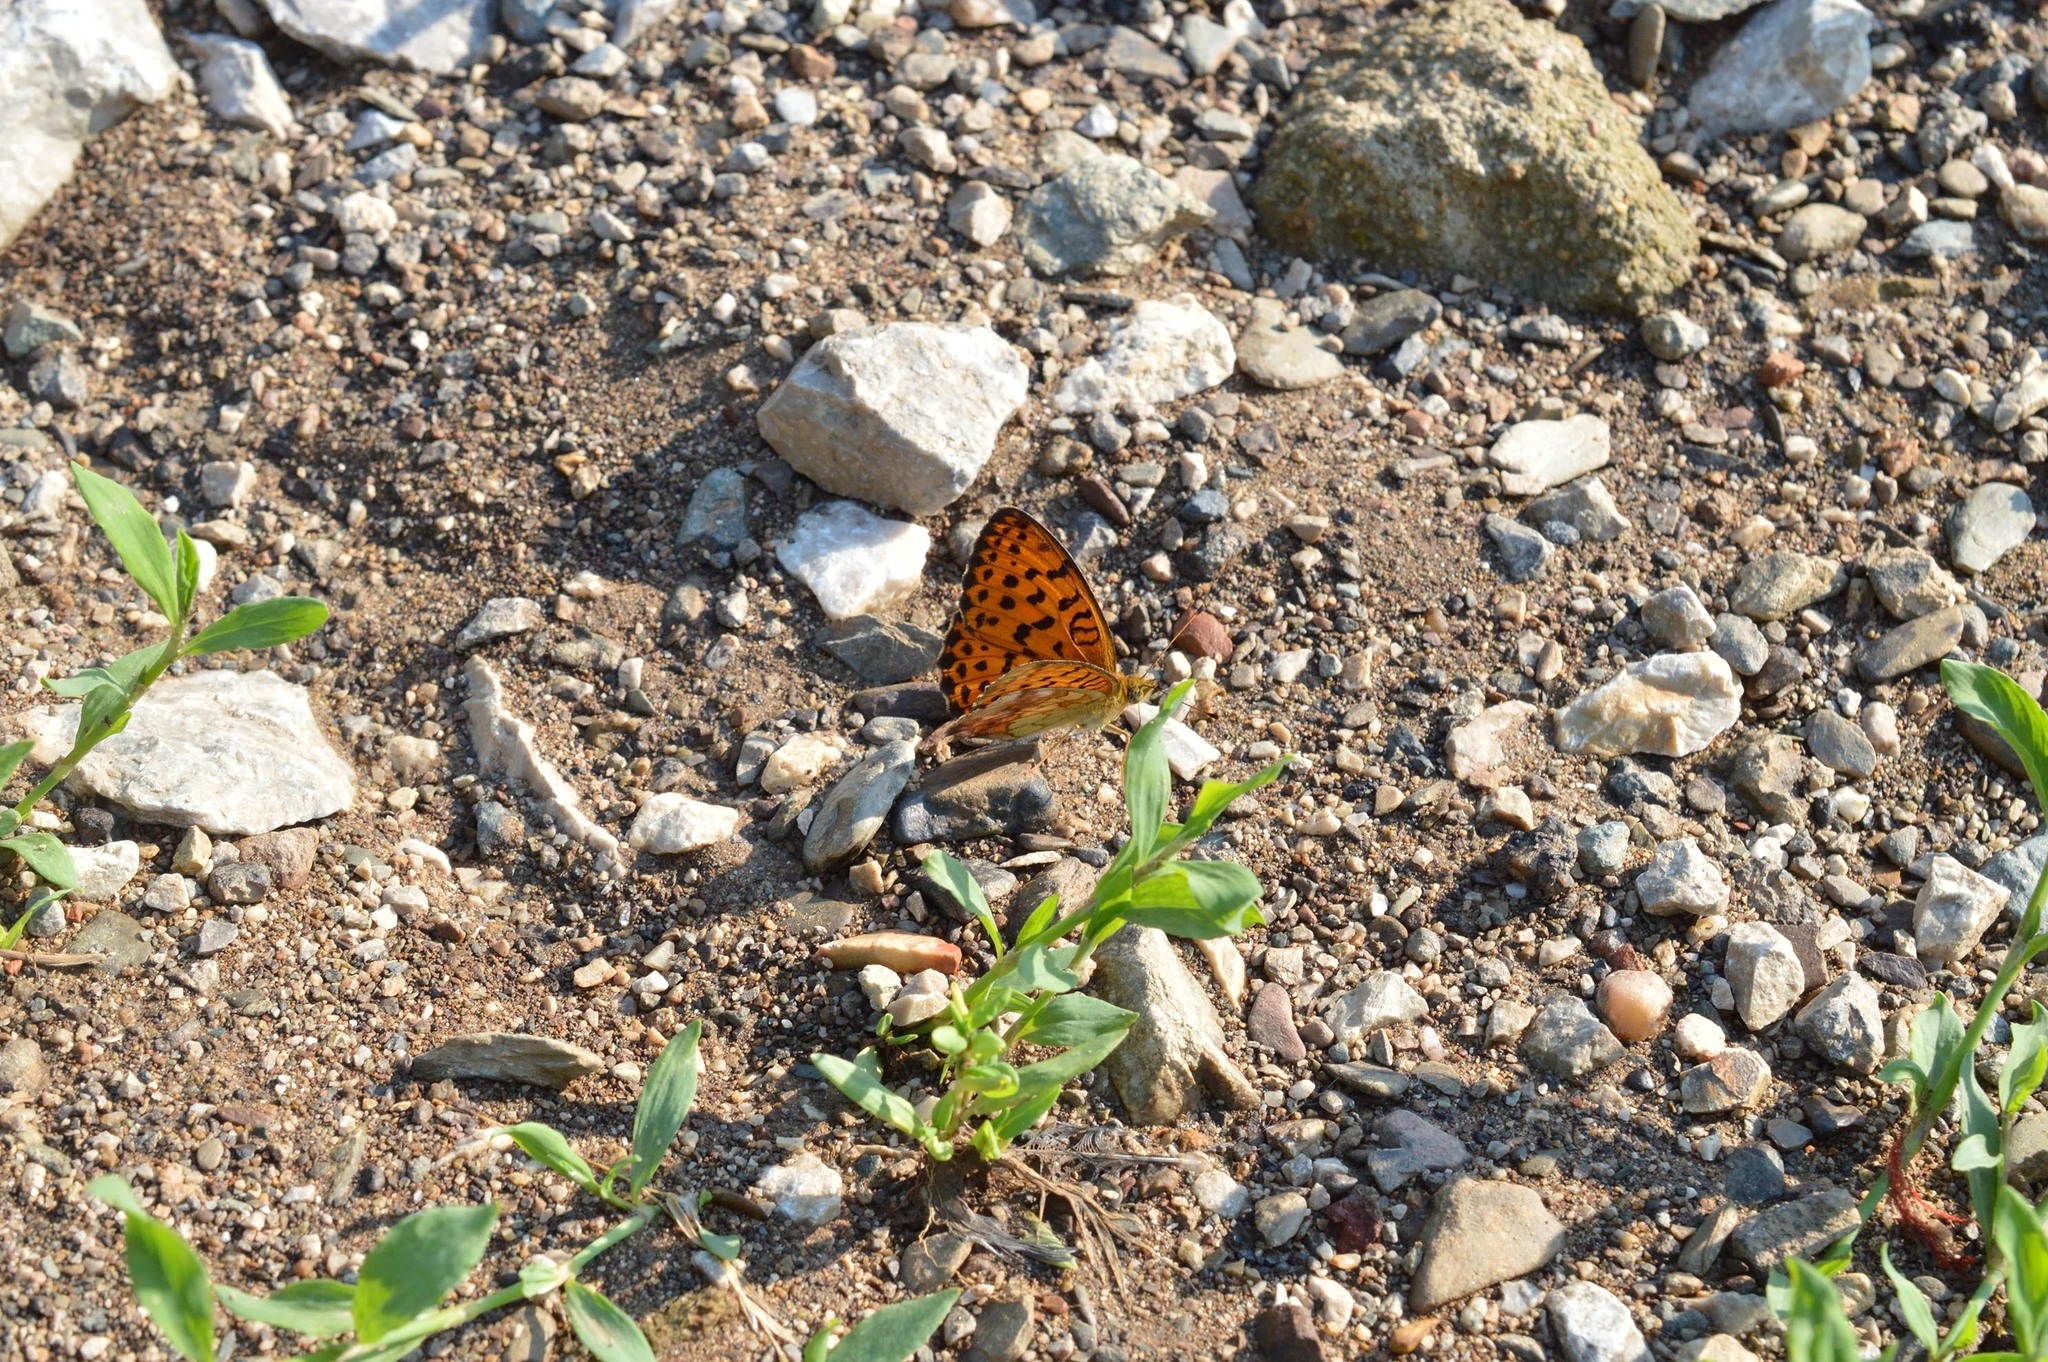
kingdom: Animalia
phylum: Arthropoda
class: Insecta
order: Lepidoptera
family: Nymphalidae
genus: Brenthis
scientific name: Brenthis daphne
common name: Marbled fritillary
